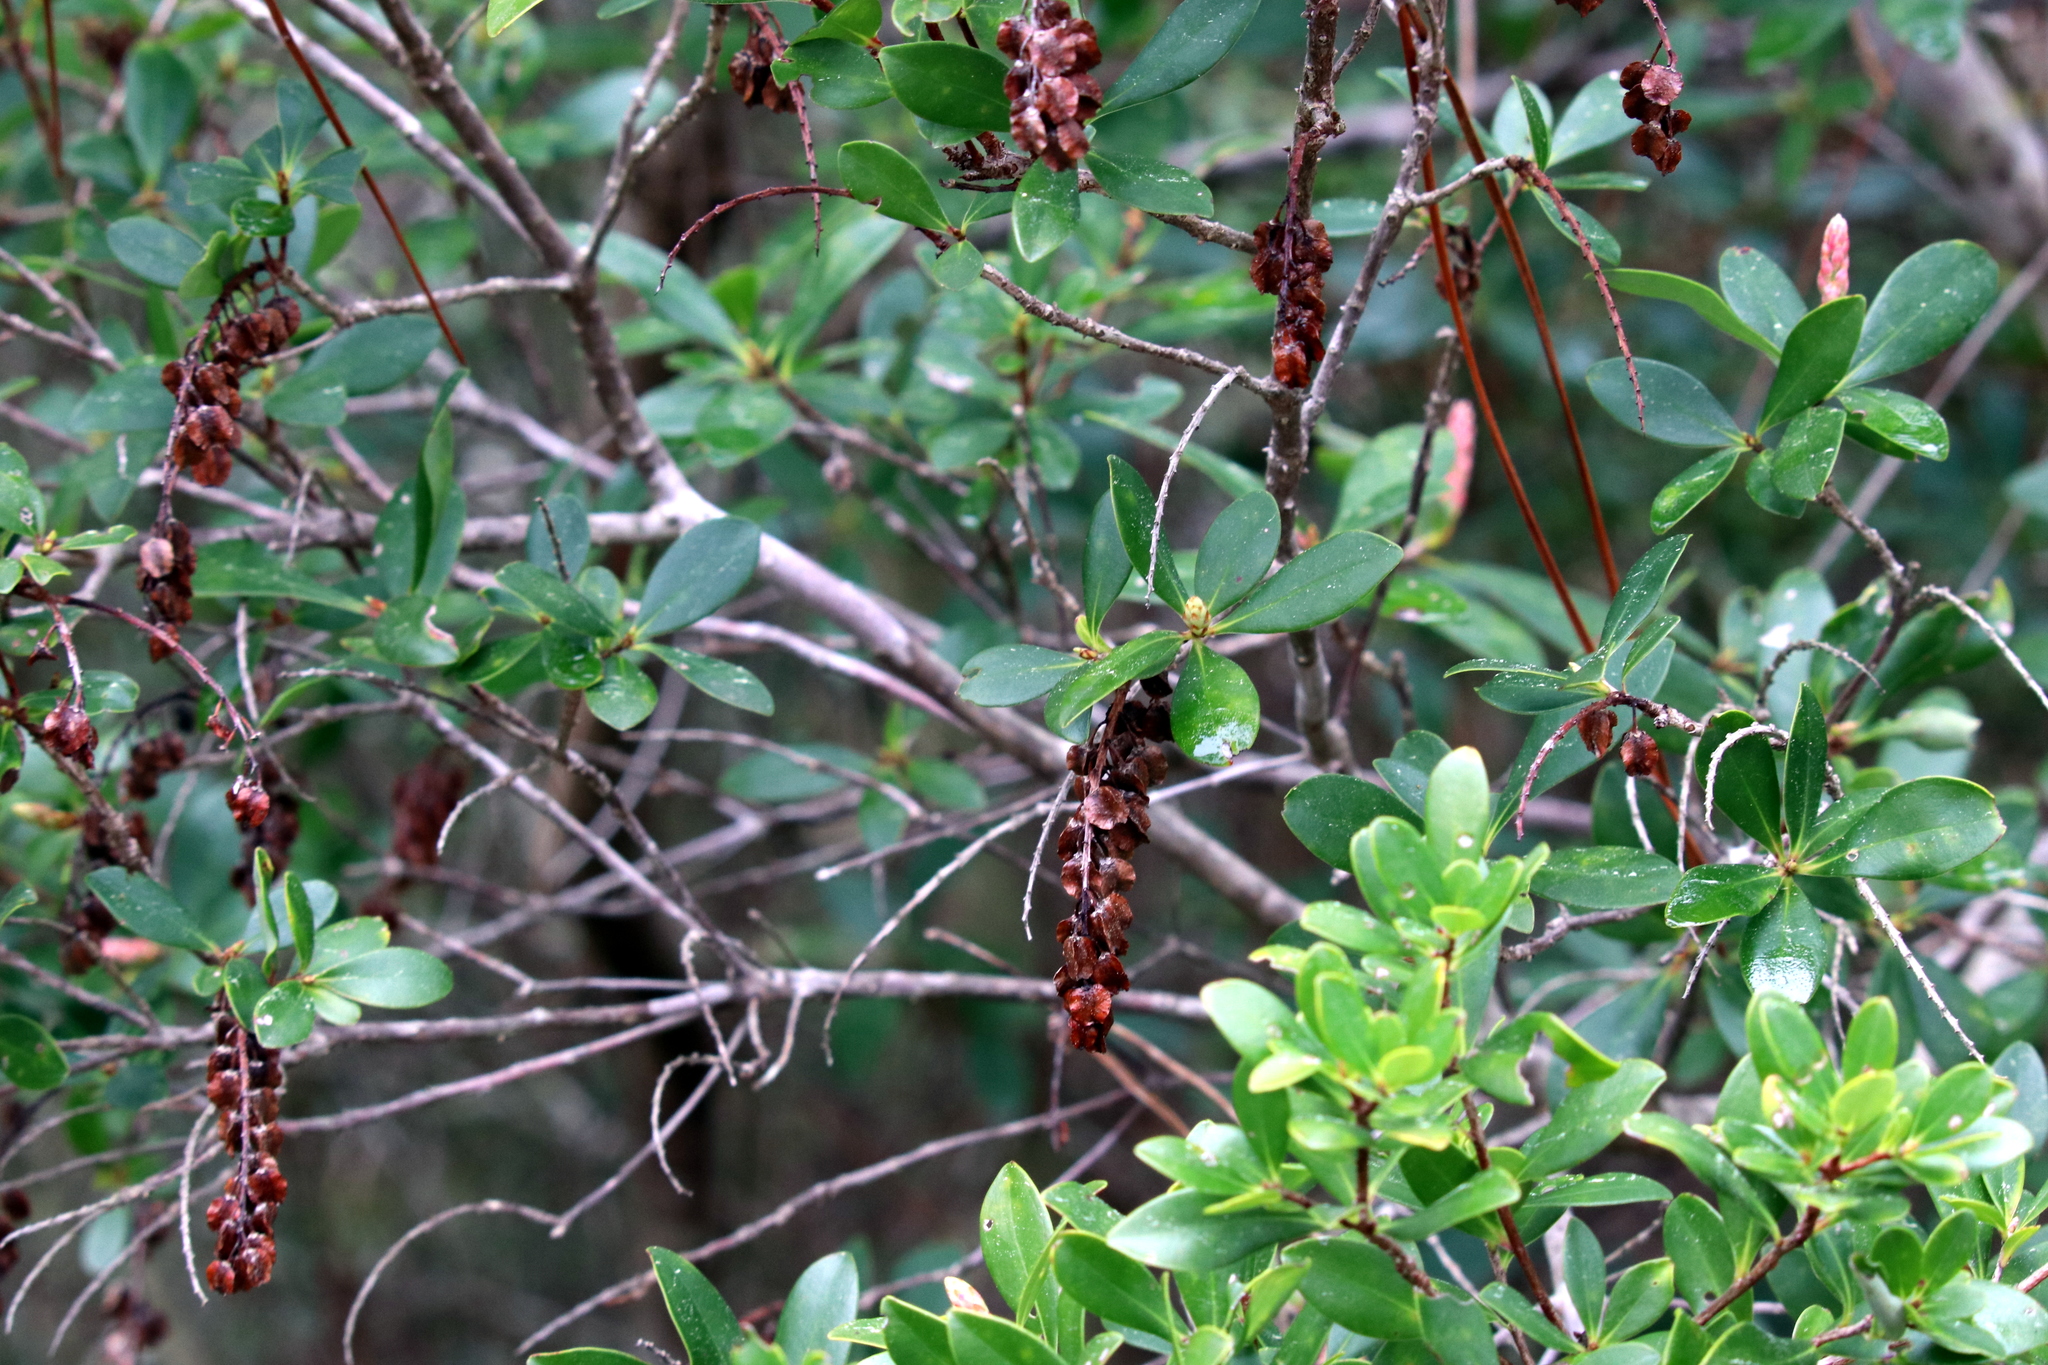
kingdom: Plantae
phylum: Tracheophyta
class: Magnoliopsida
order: Ericales
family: Cyrillaceae
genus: Cliftonia
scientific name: Cliftonia monophylla
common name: Titi
